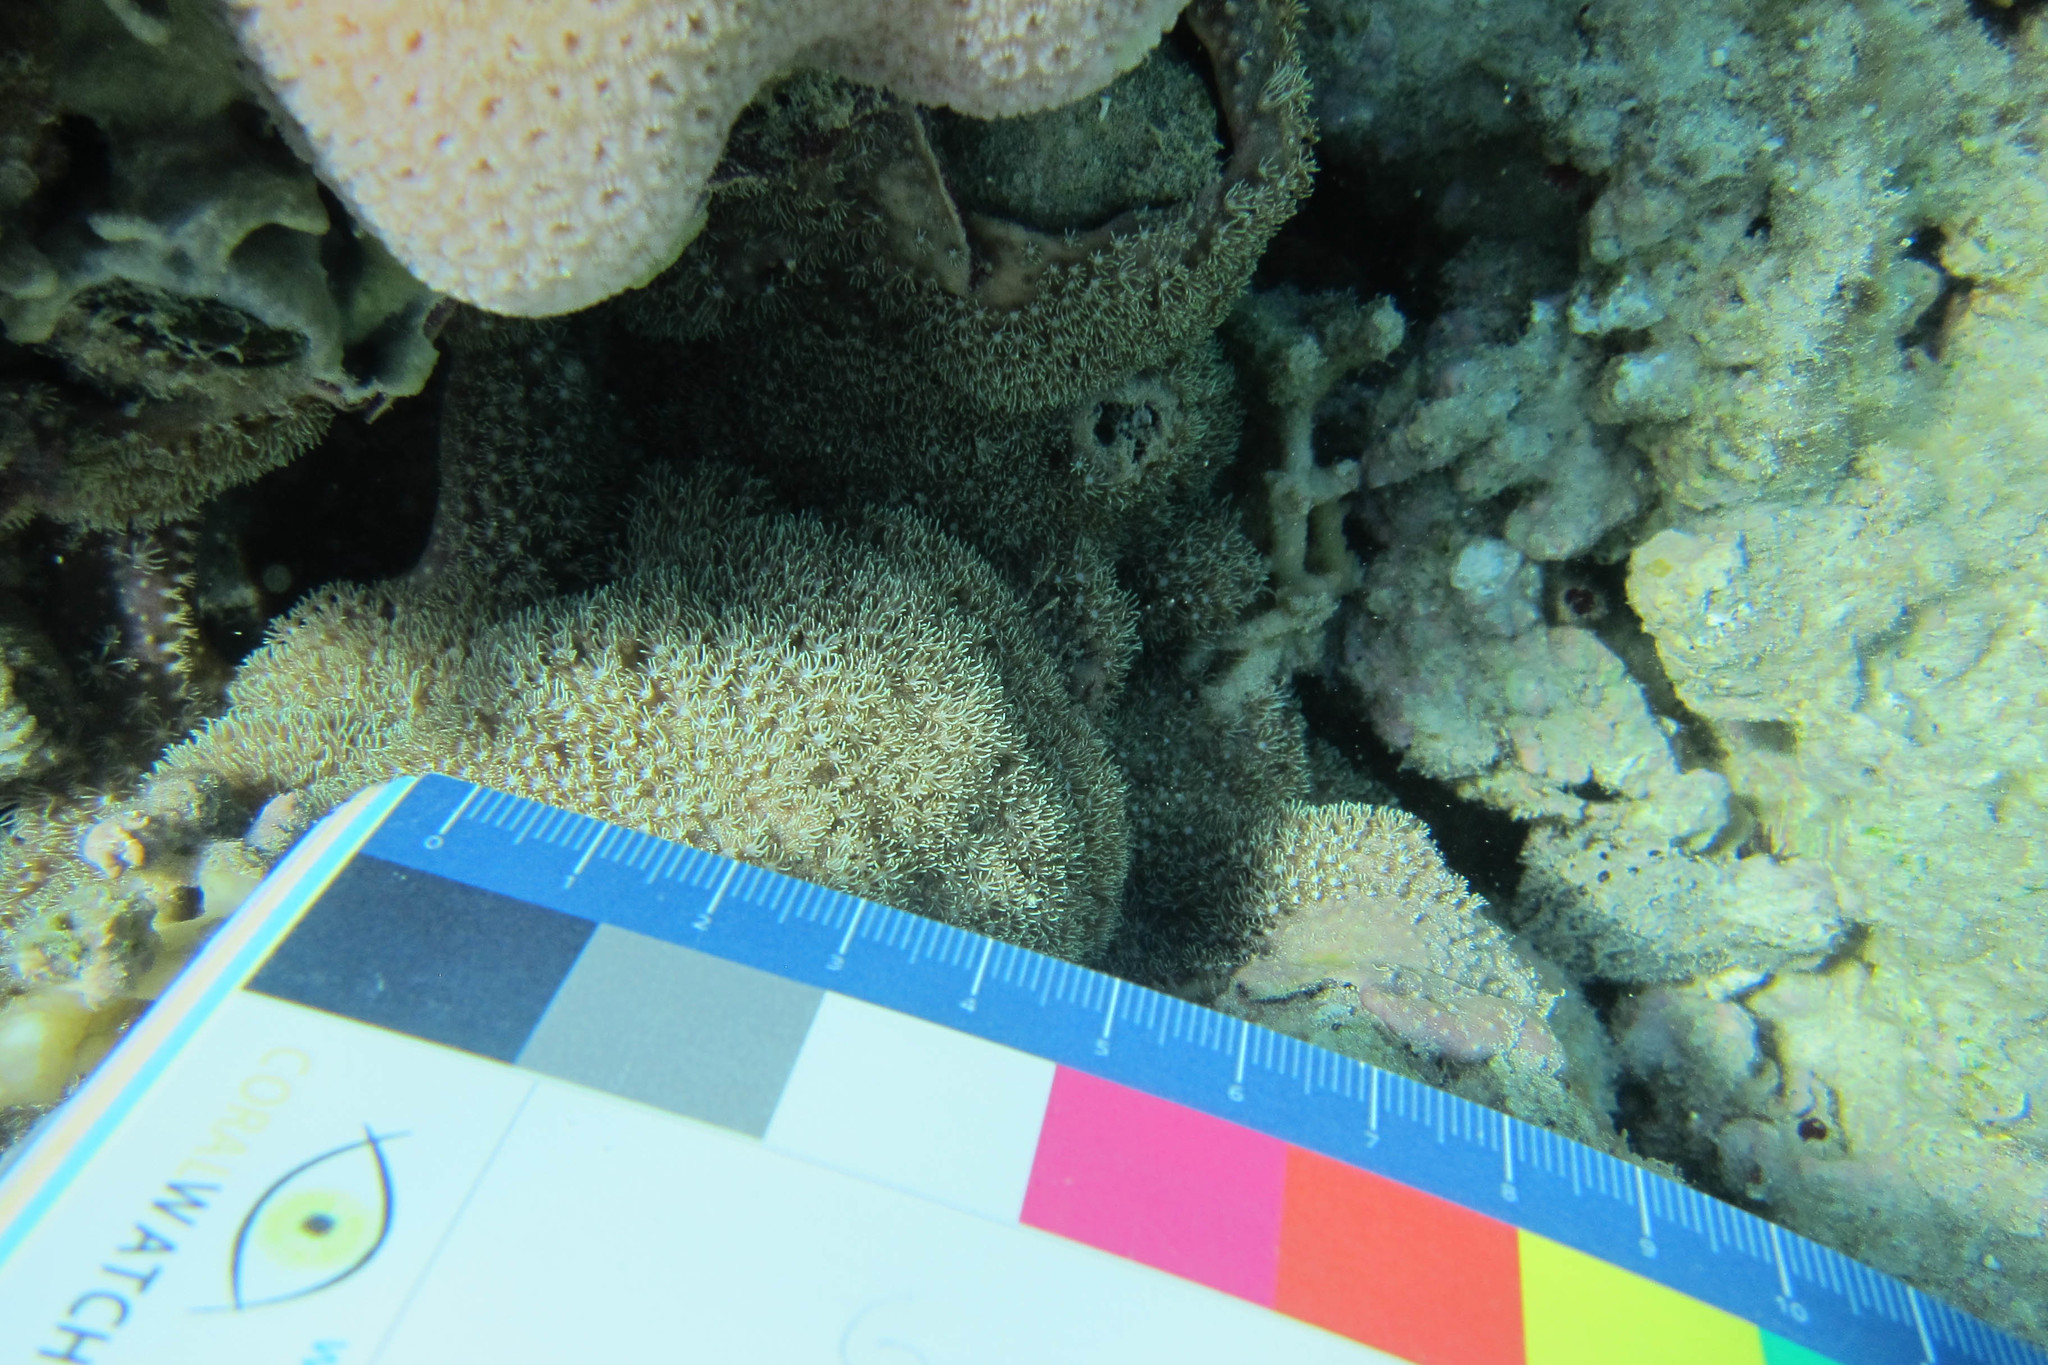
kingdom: Animalia
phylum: Cnidaria
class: Anthozoa
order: Scleralcyonacea
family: Briareidae
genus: Briareum
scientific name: Briareum stechei
